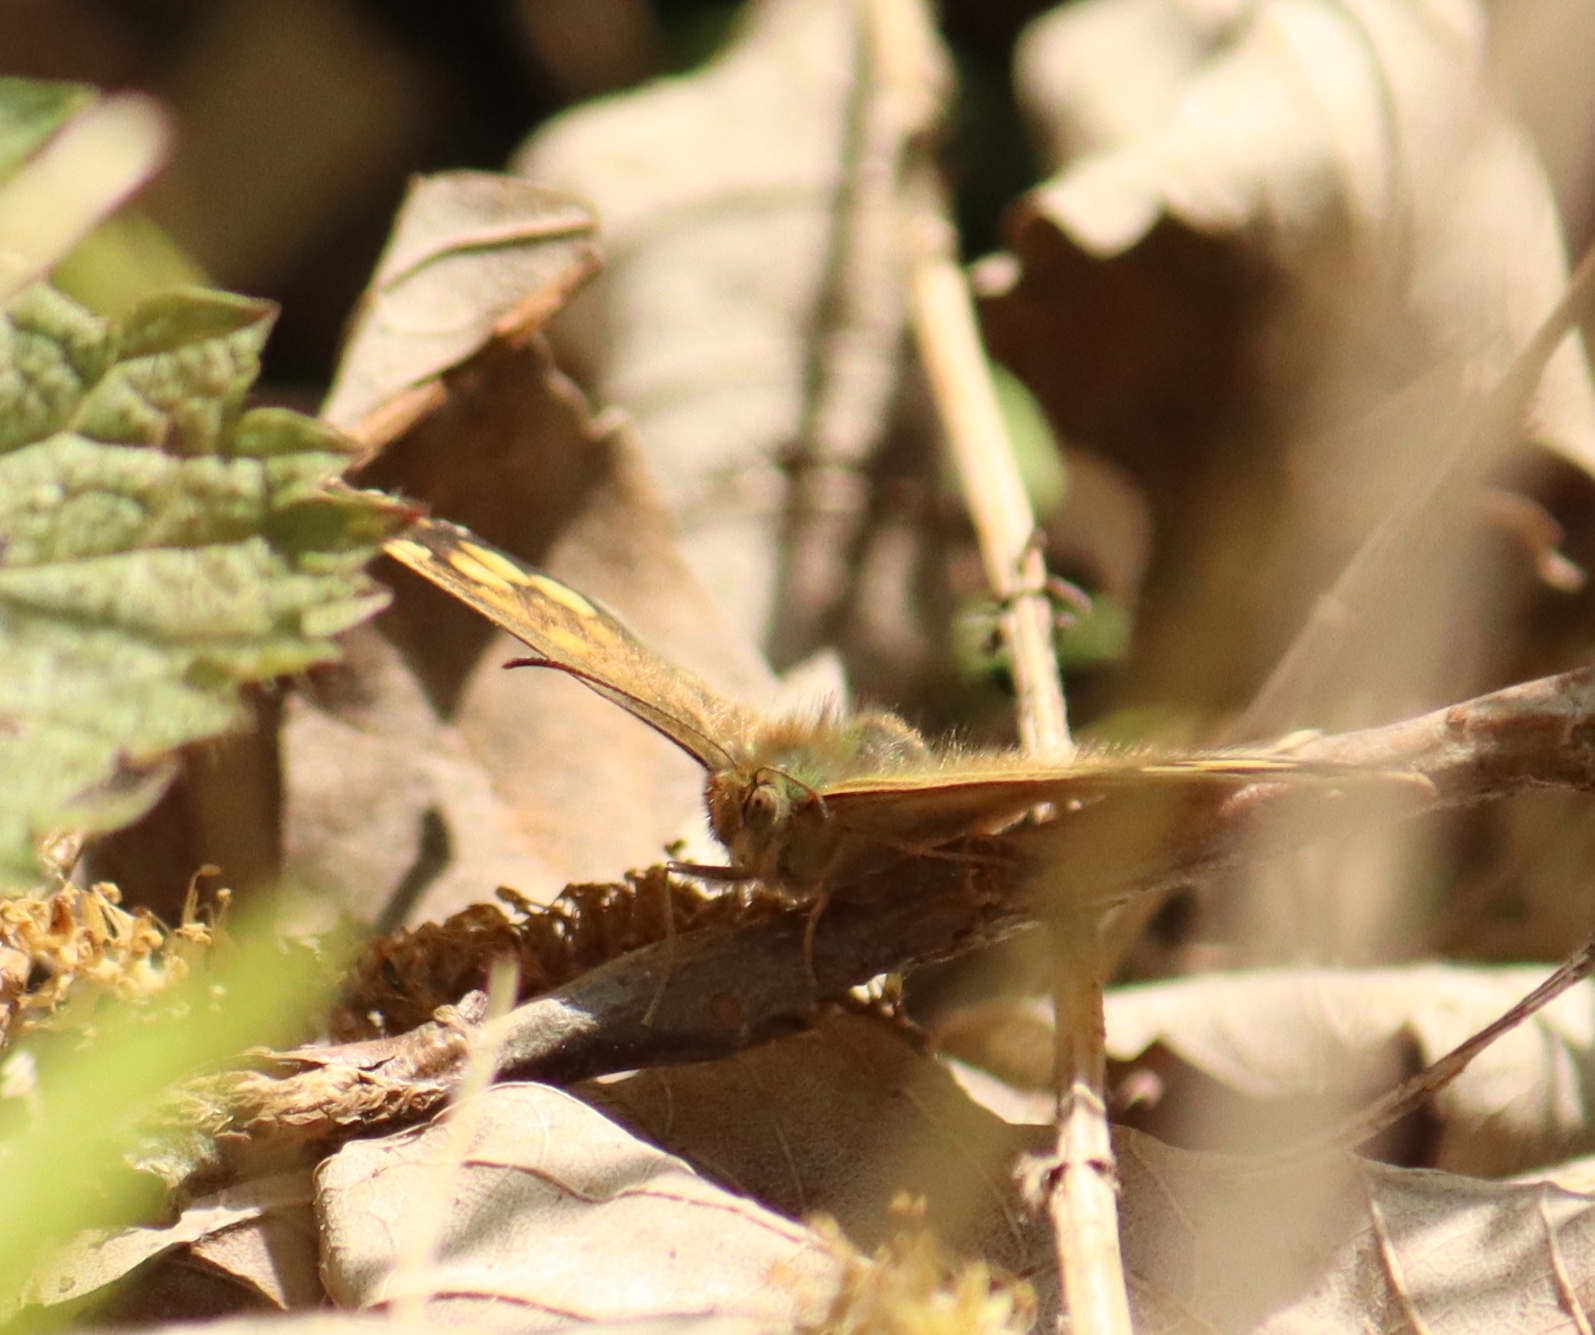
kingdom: Animalia
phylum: Arthropoda
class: Insecta
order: Lepidoptera
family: Nymphalidae
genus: Pararge
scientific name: Pararge aegeria
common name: Speckled wood
